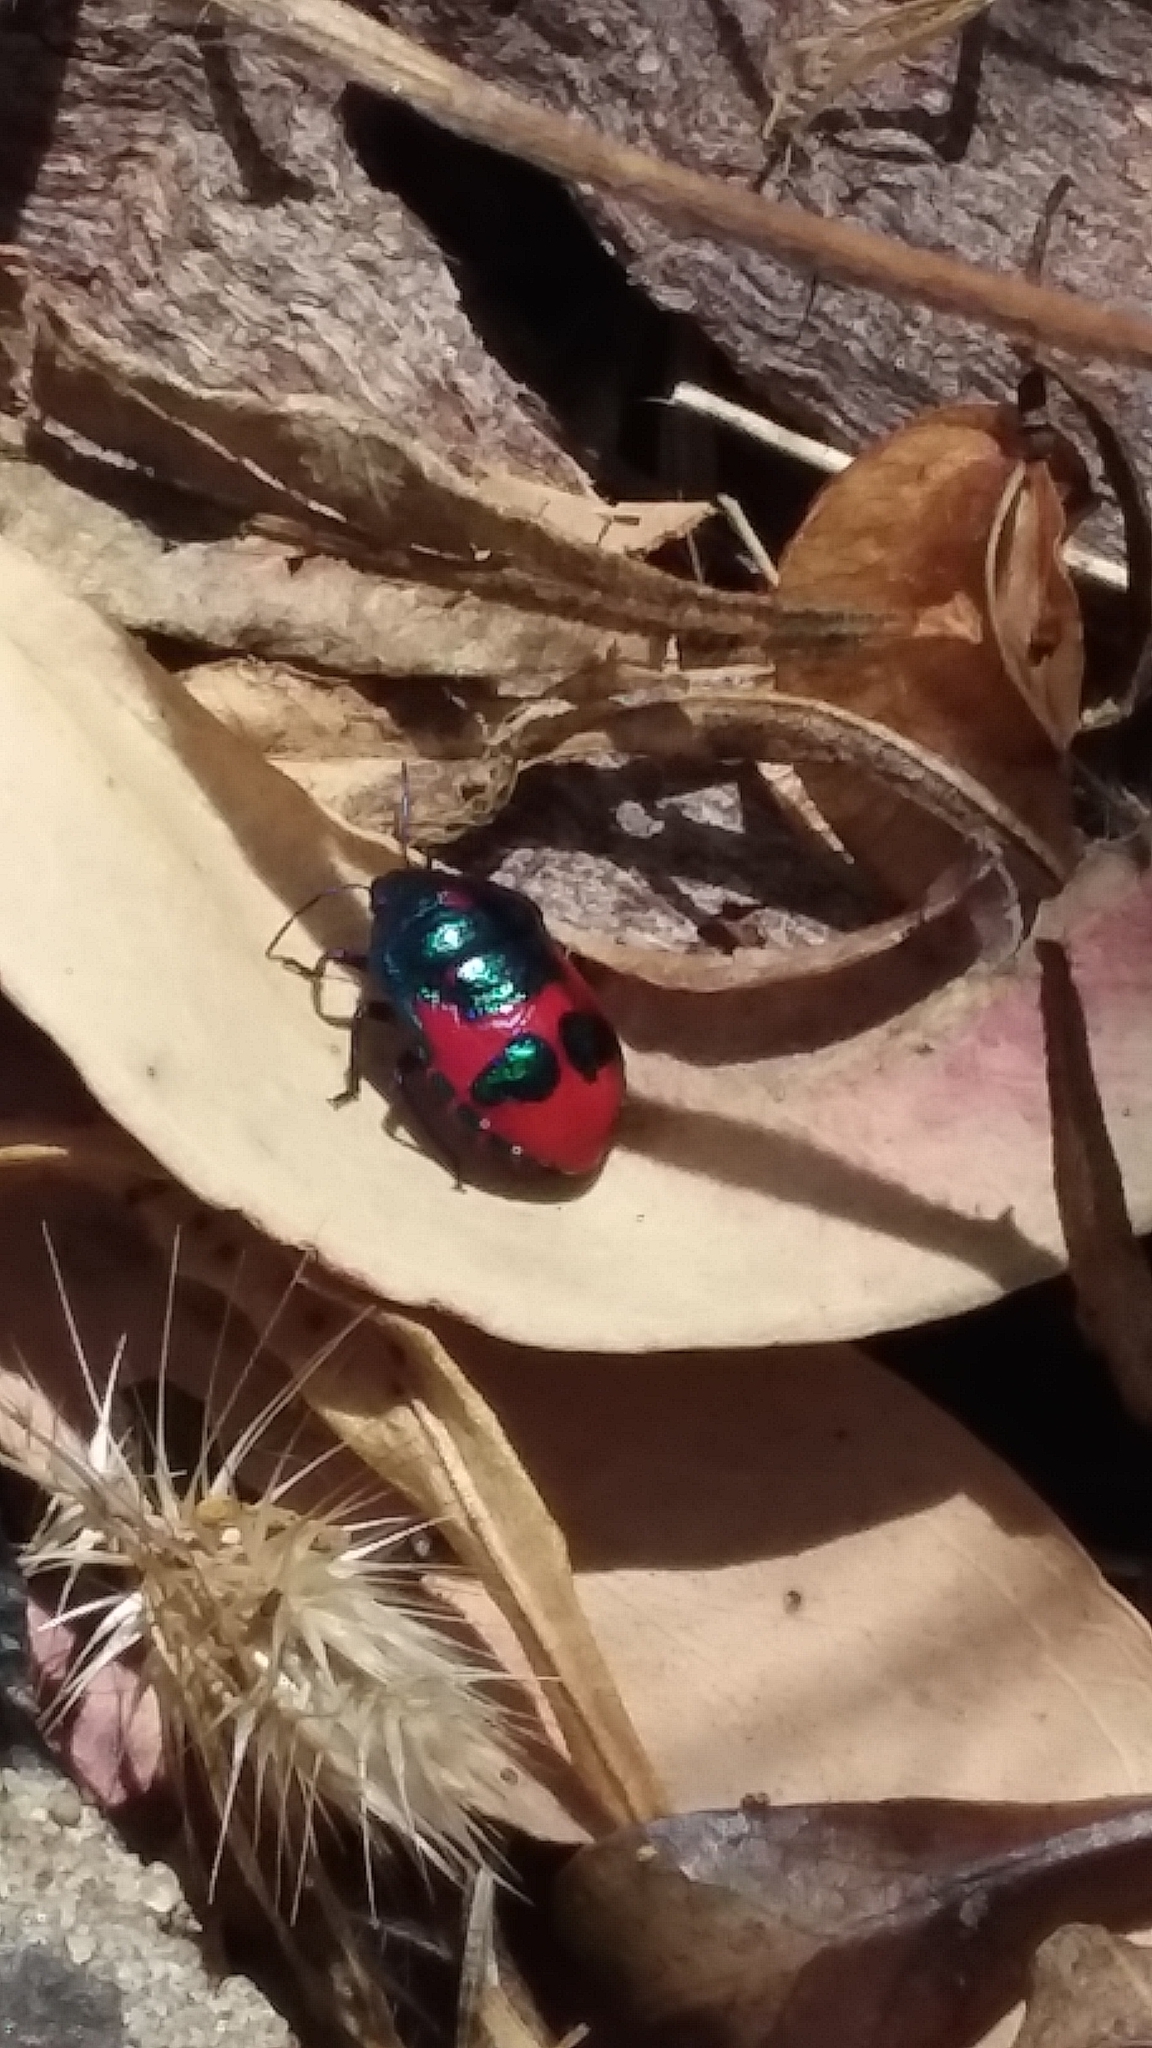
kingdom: Animalia
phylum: Arthropoda
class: Insecta
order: Hemiptera
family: Scutelleridae
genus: Choerocoris
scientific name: Choerocoris paganus
